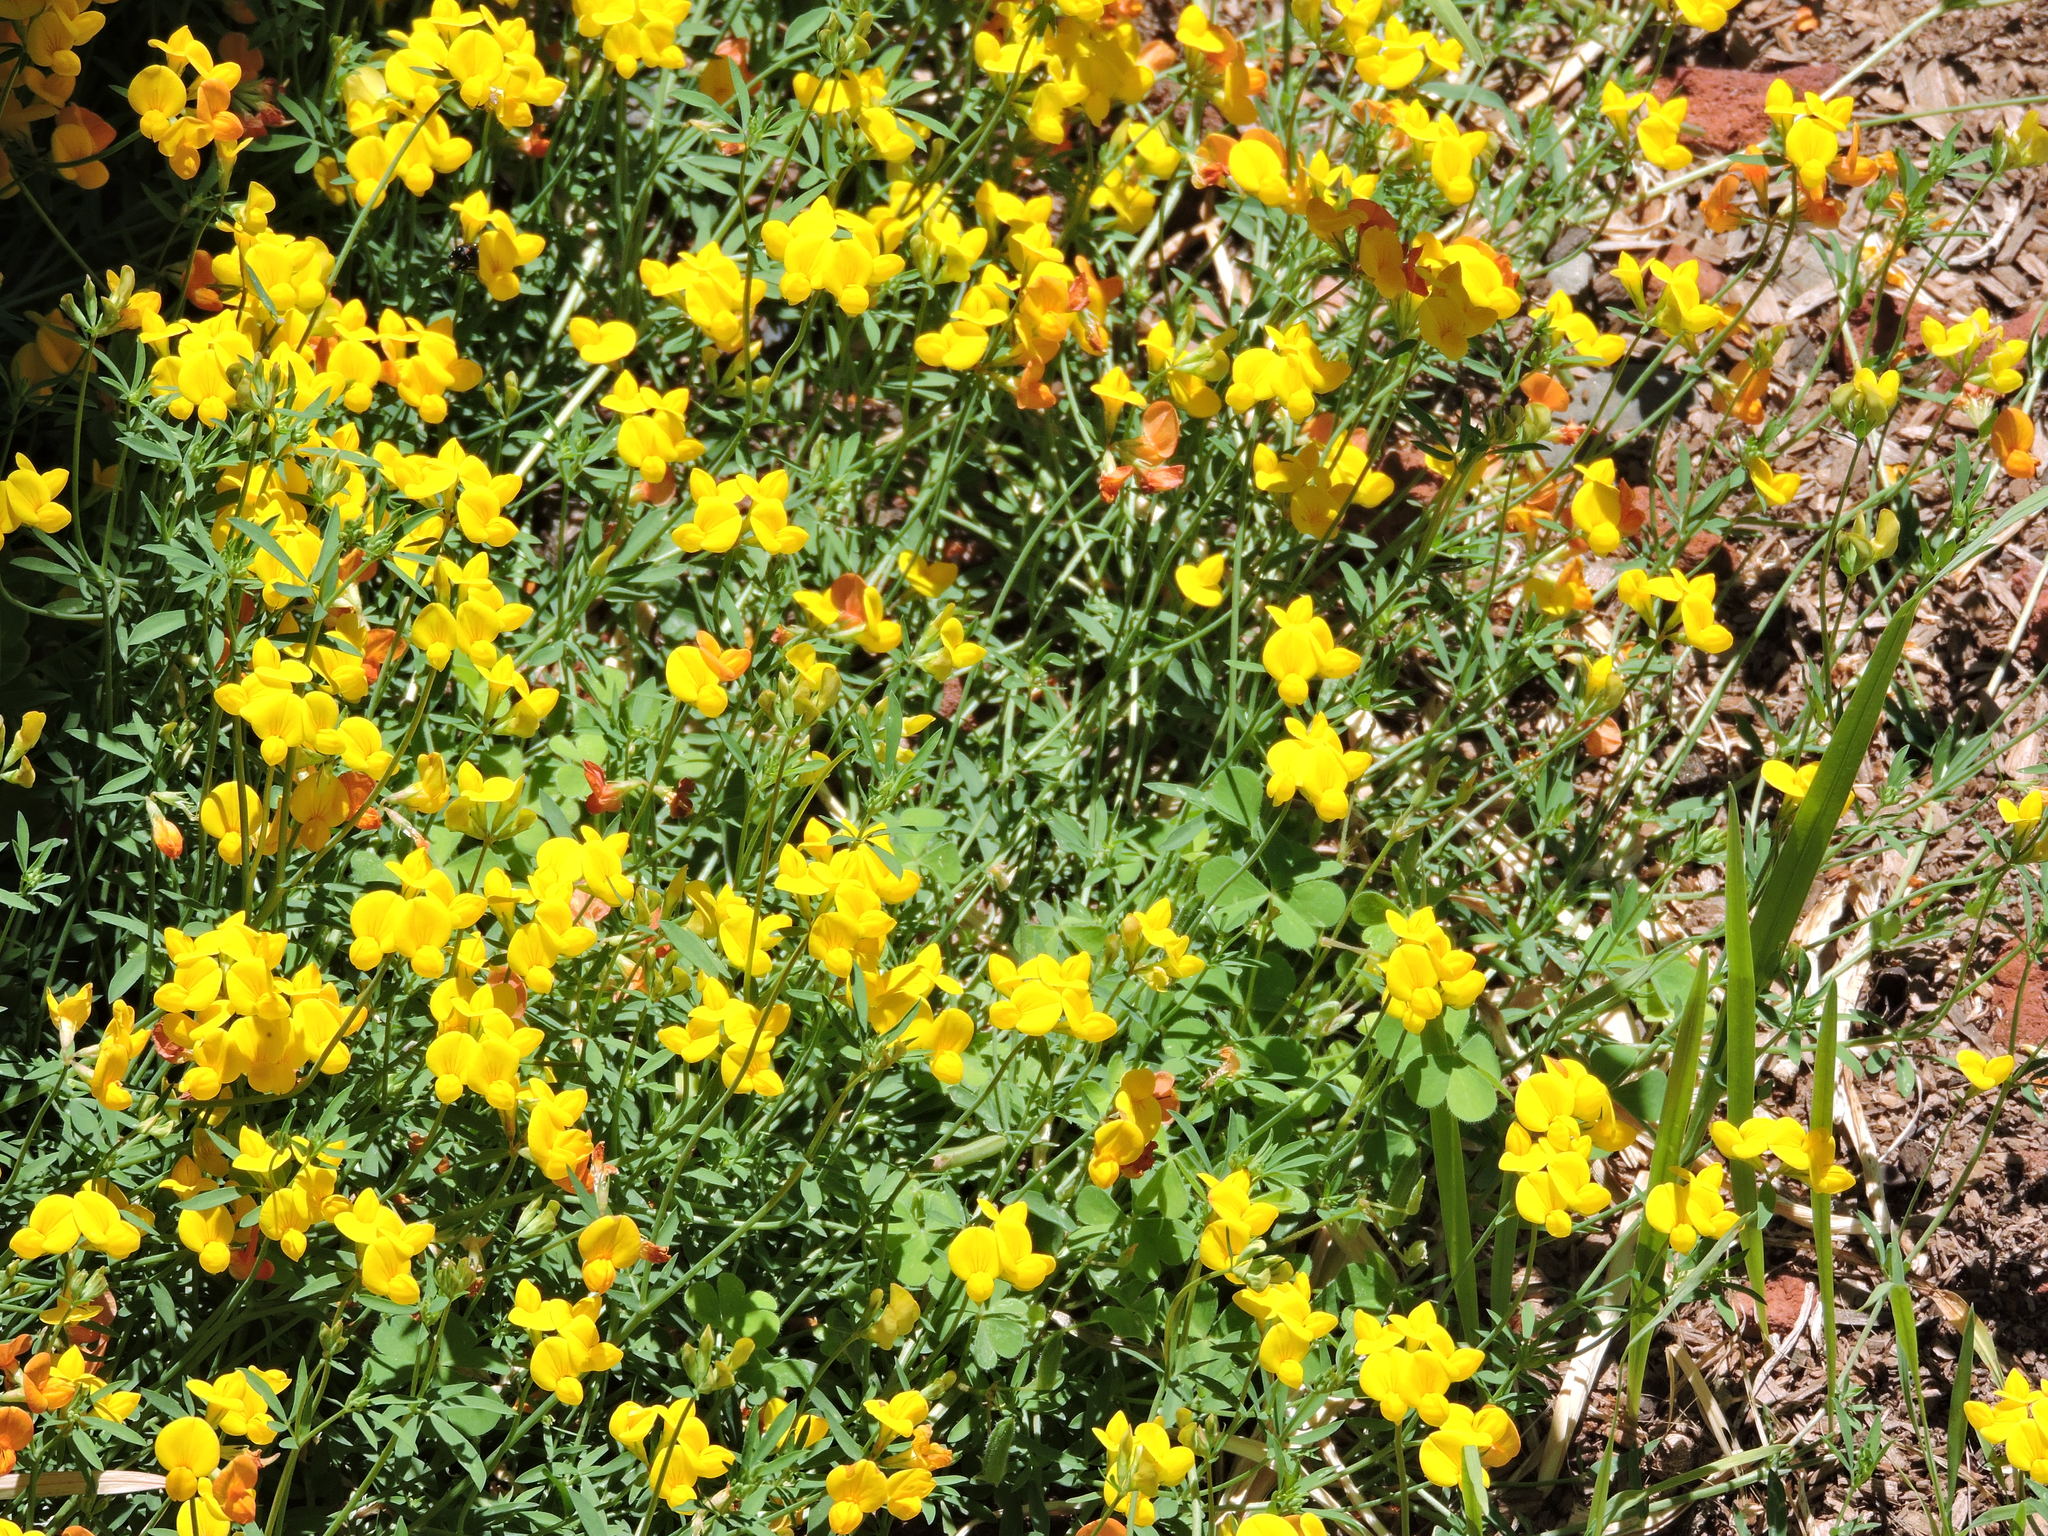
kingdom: Plantae
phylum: Tracheophyta
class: Magnoliopsida
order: Fabales
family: Fabaceae
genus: Lotus
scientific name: Lotus tenuis
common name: Narrow-leaved bird's-foot-trefoil
